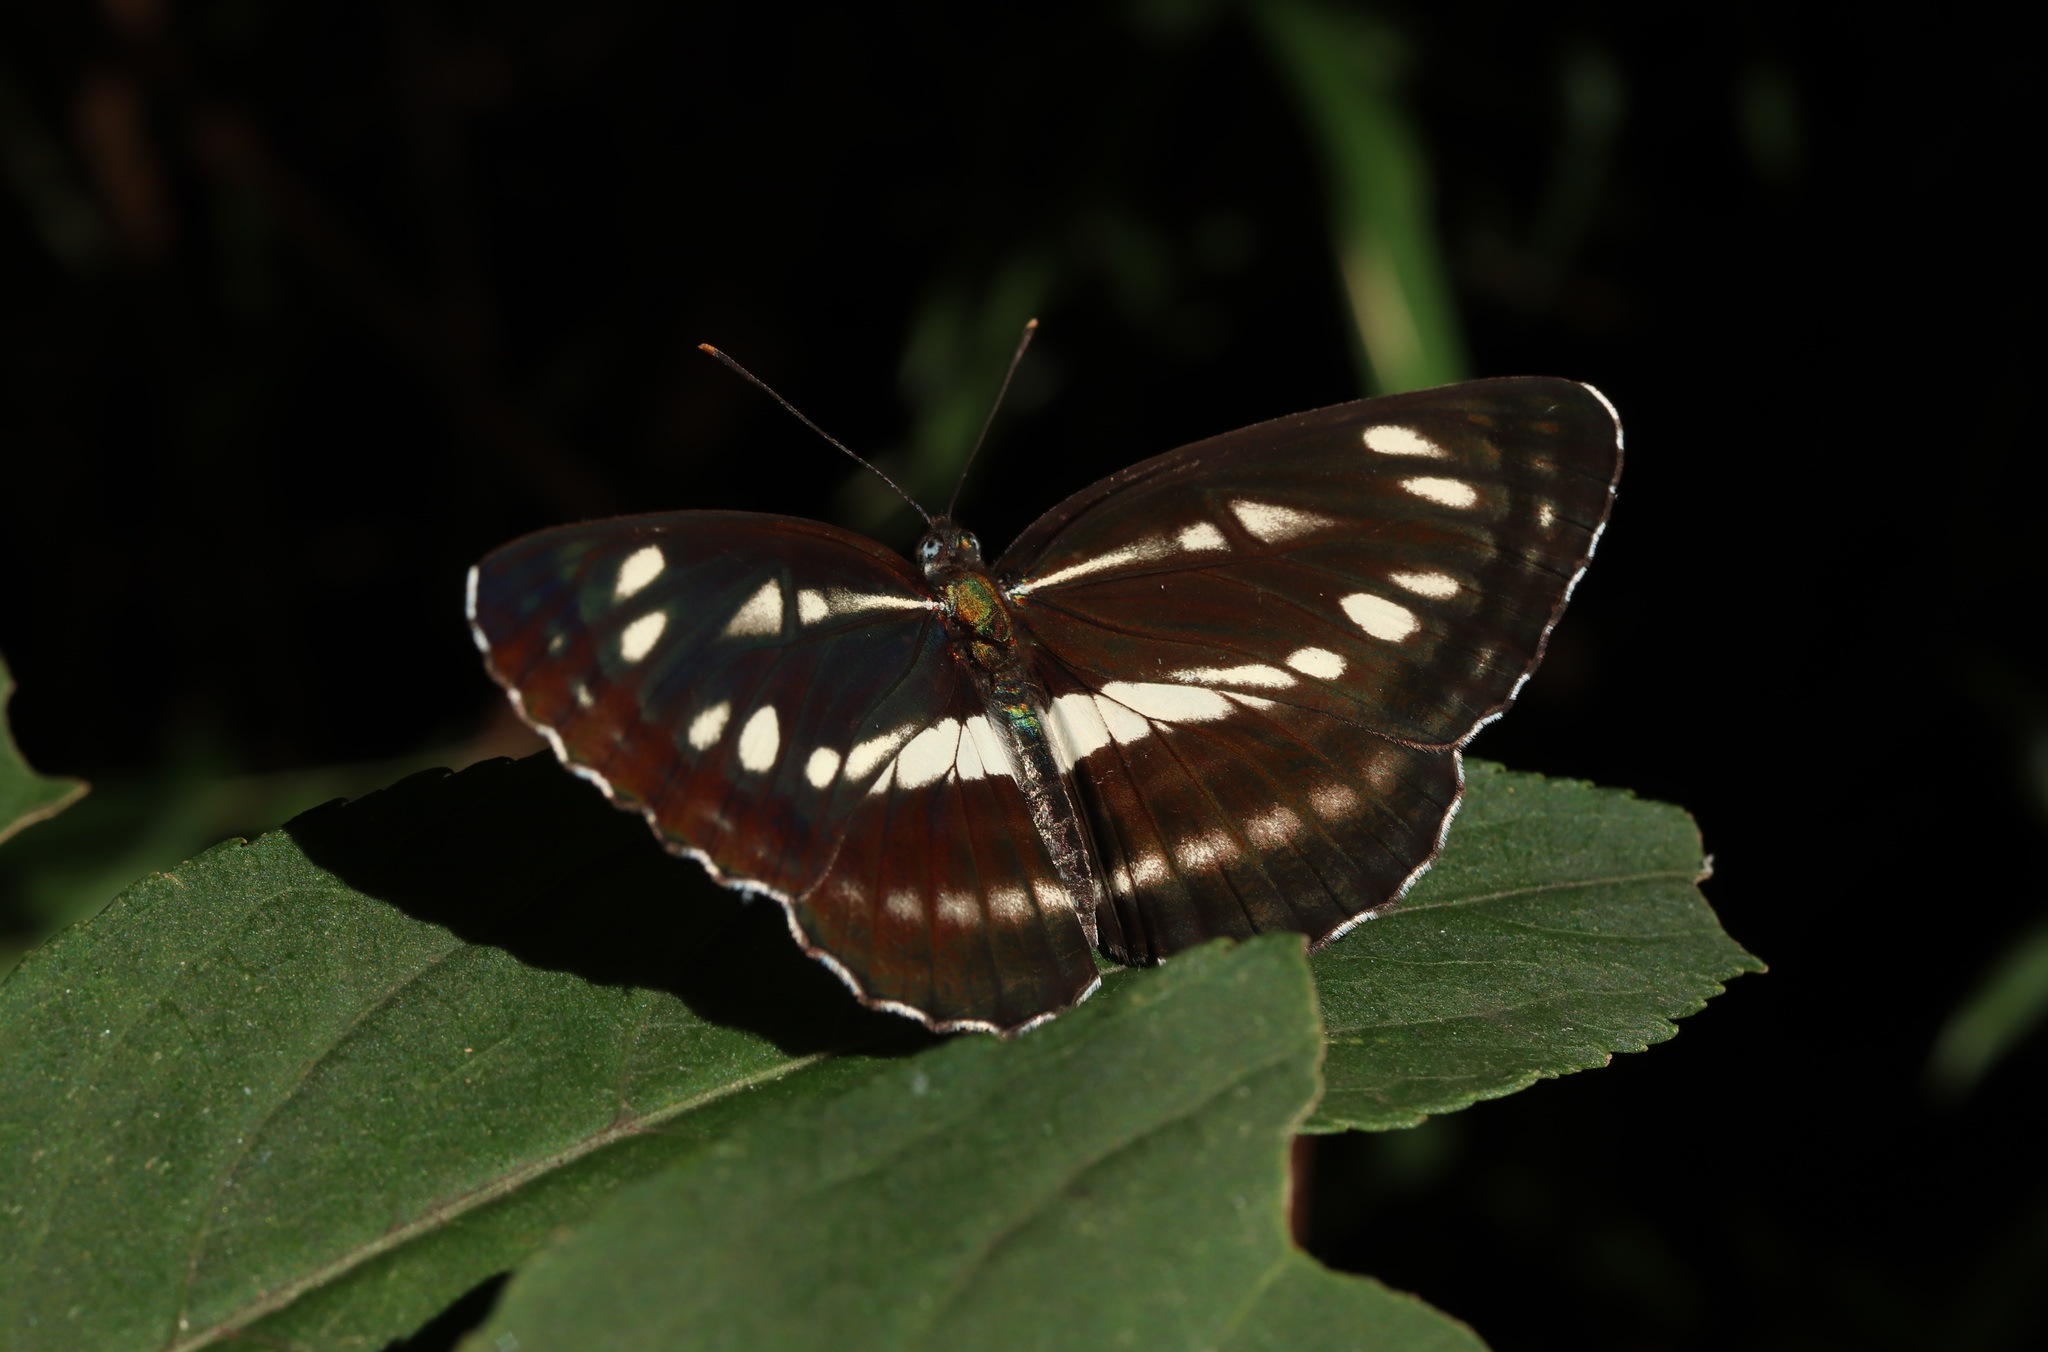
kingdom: Animalia
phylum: Arthropoda
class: Insecta
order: Lepidoptera
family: Nymphalidae
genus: Neptis
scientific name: Neptis sappho
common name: Common glider
